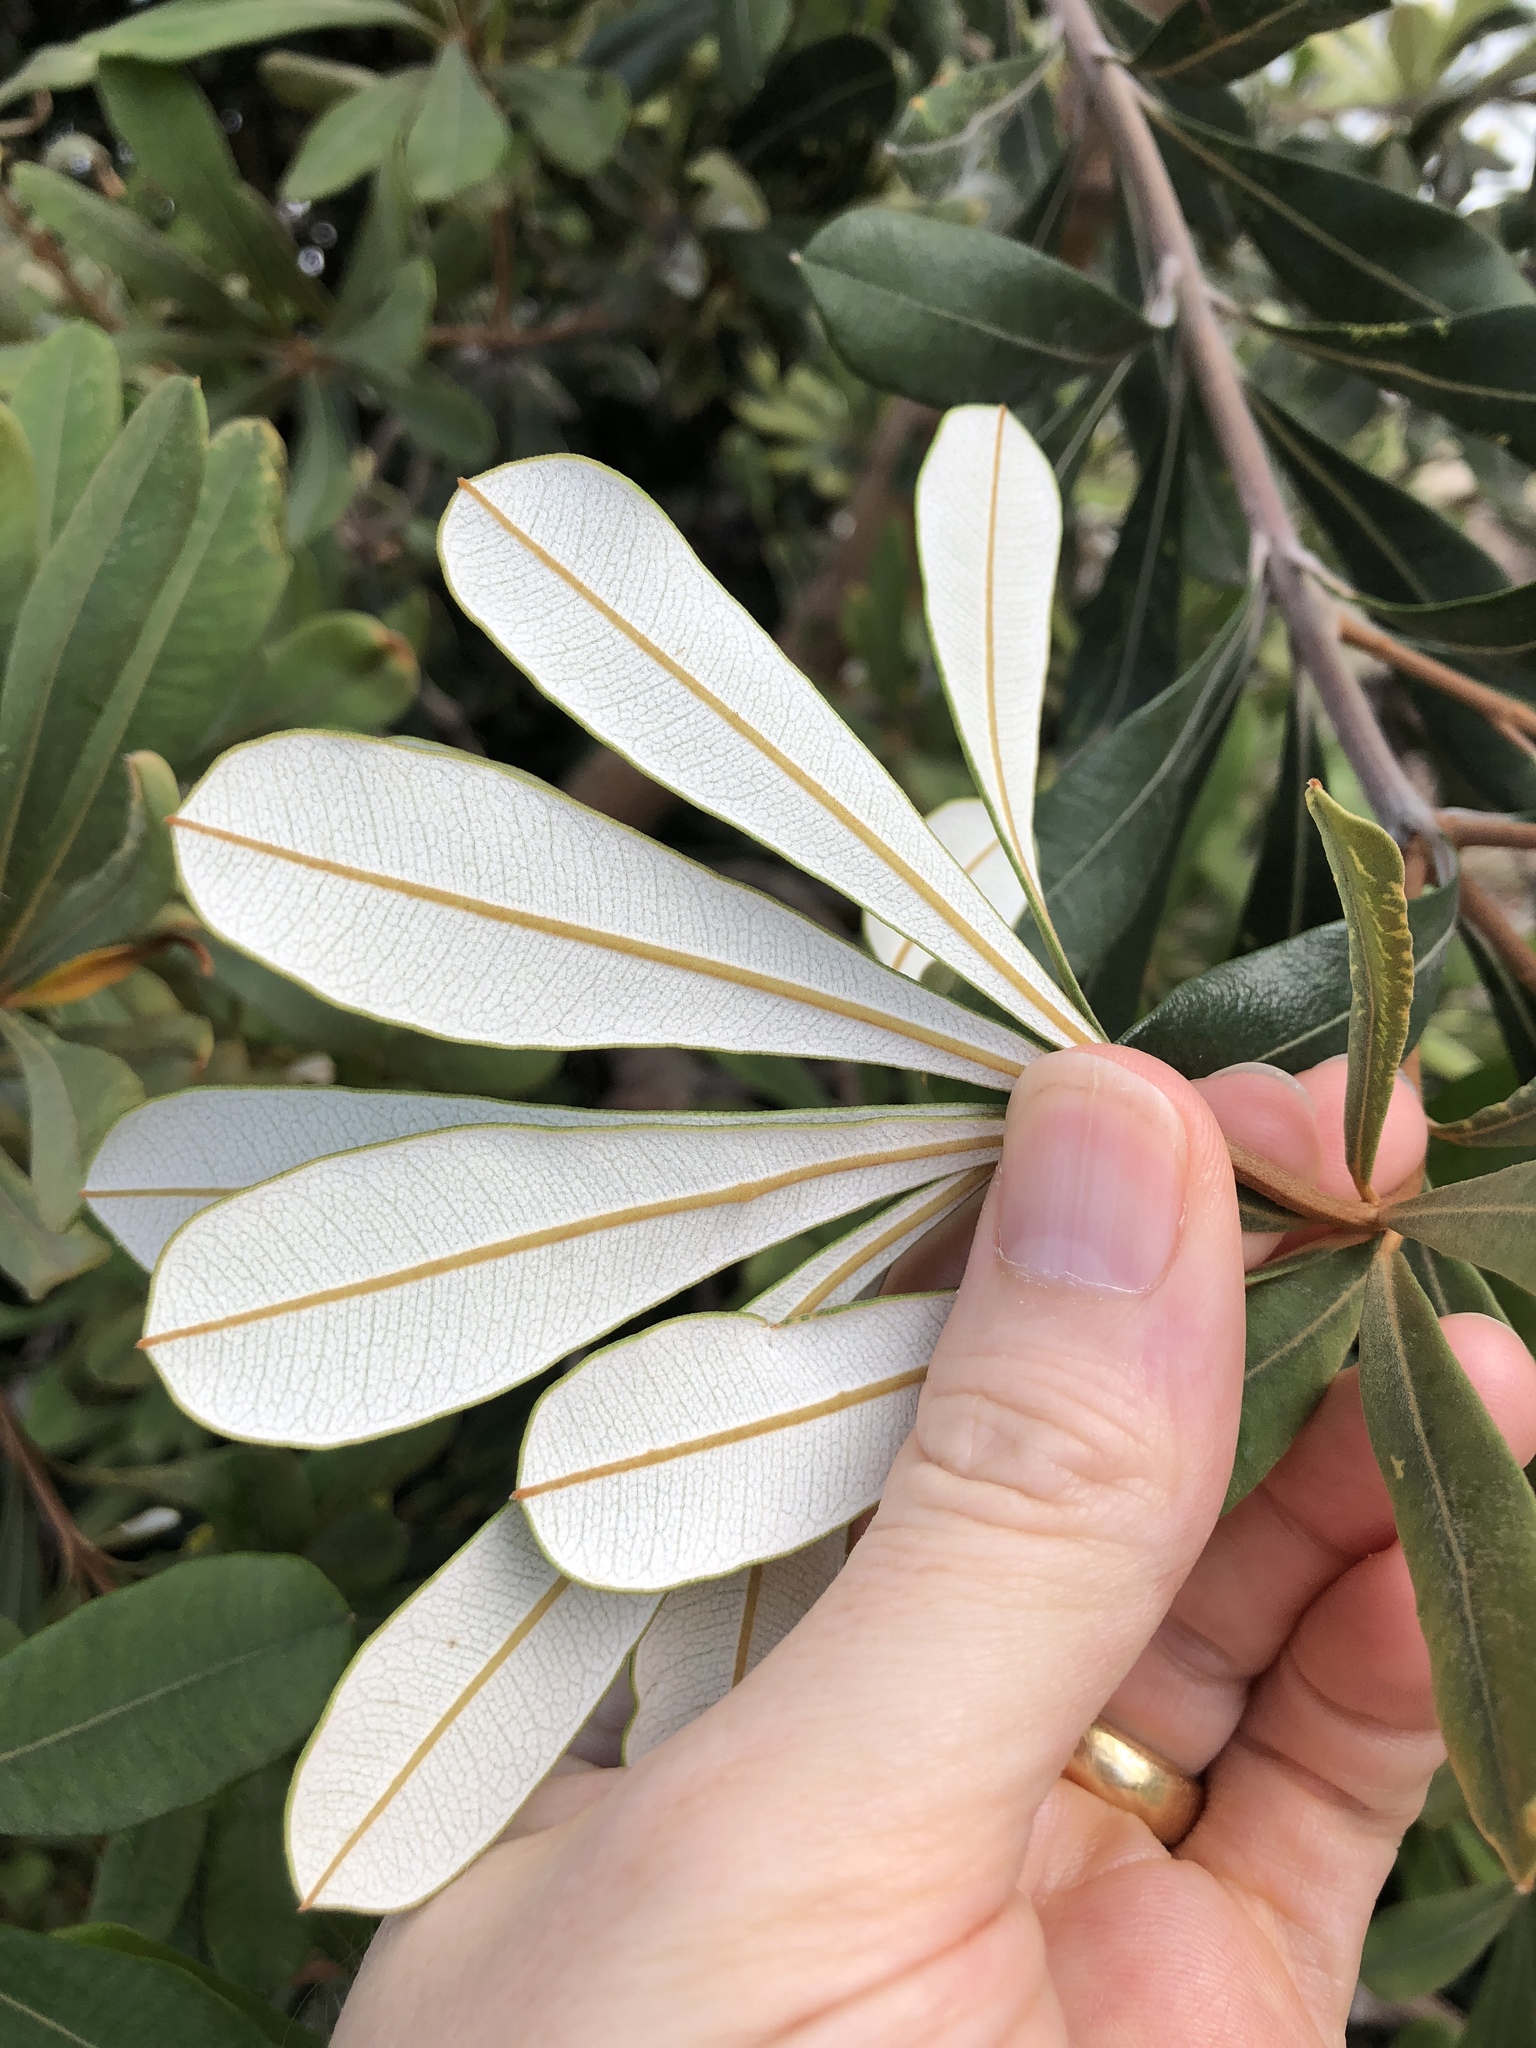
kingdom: Plantae
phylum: Tracheophyta
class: Magnoliopsida
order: Proteales
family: Proteaceae
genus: Banksia
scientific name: Banksia integrifolia
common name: White-honeysuckle
